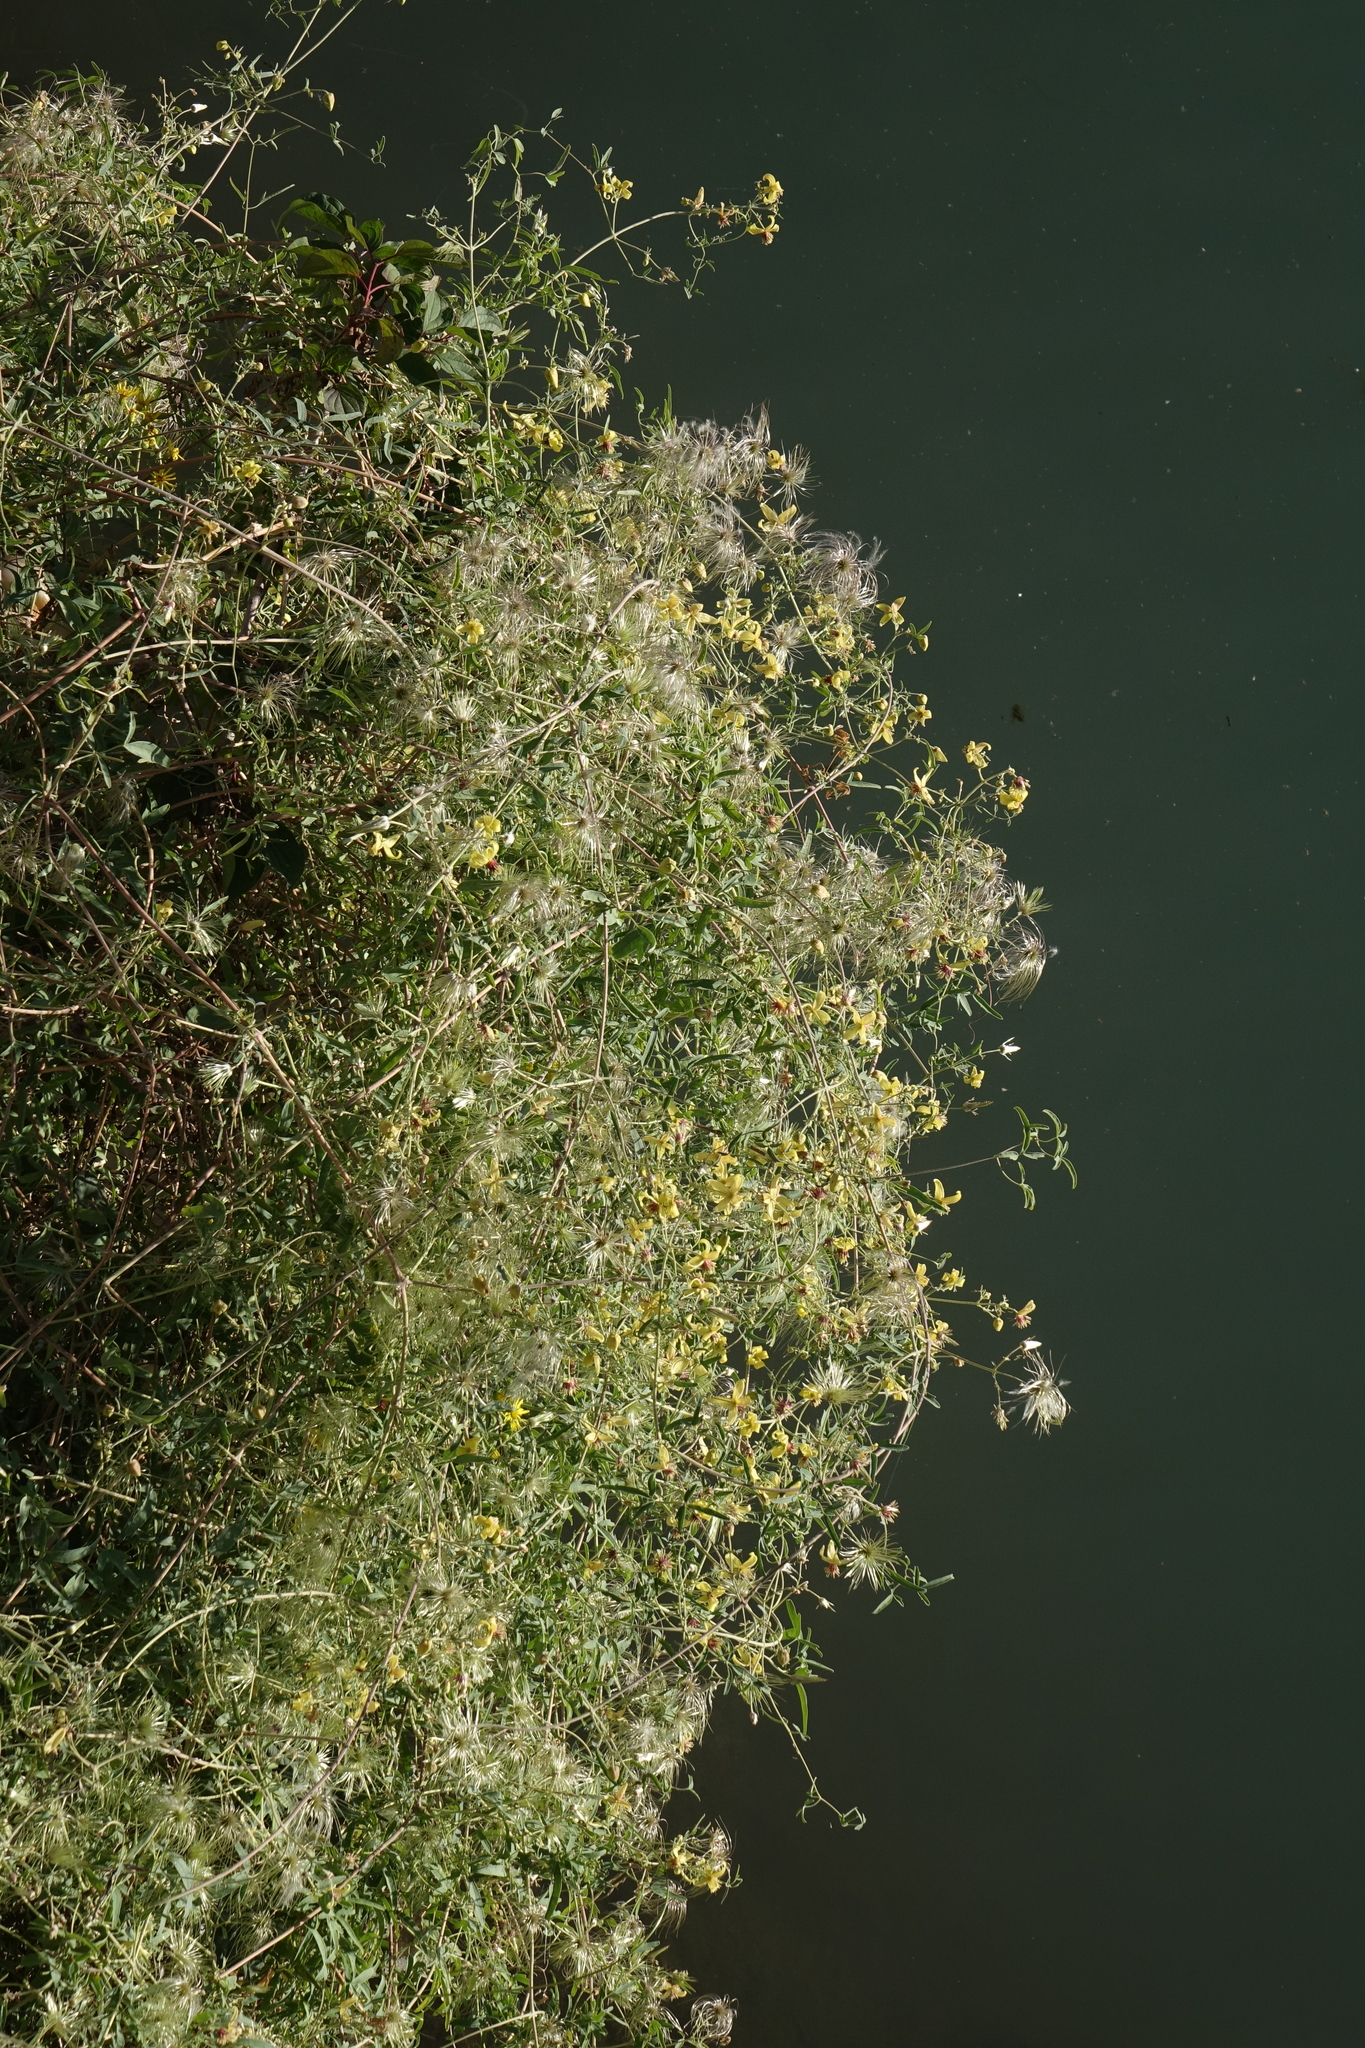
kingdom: Plantae
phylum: Tracheophyta
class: Magnoliopsida
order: Ranunculales
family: Ranunculaceae
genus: Clematis
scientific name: Clematis orientalis
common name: Oriental virgin's-bower
